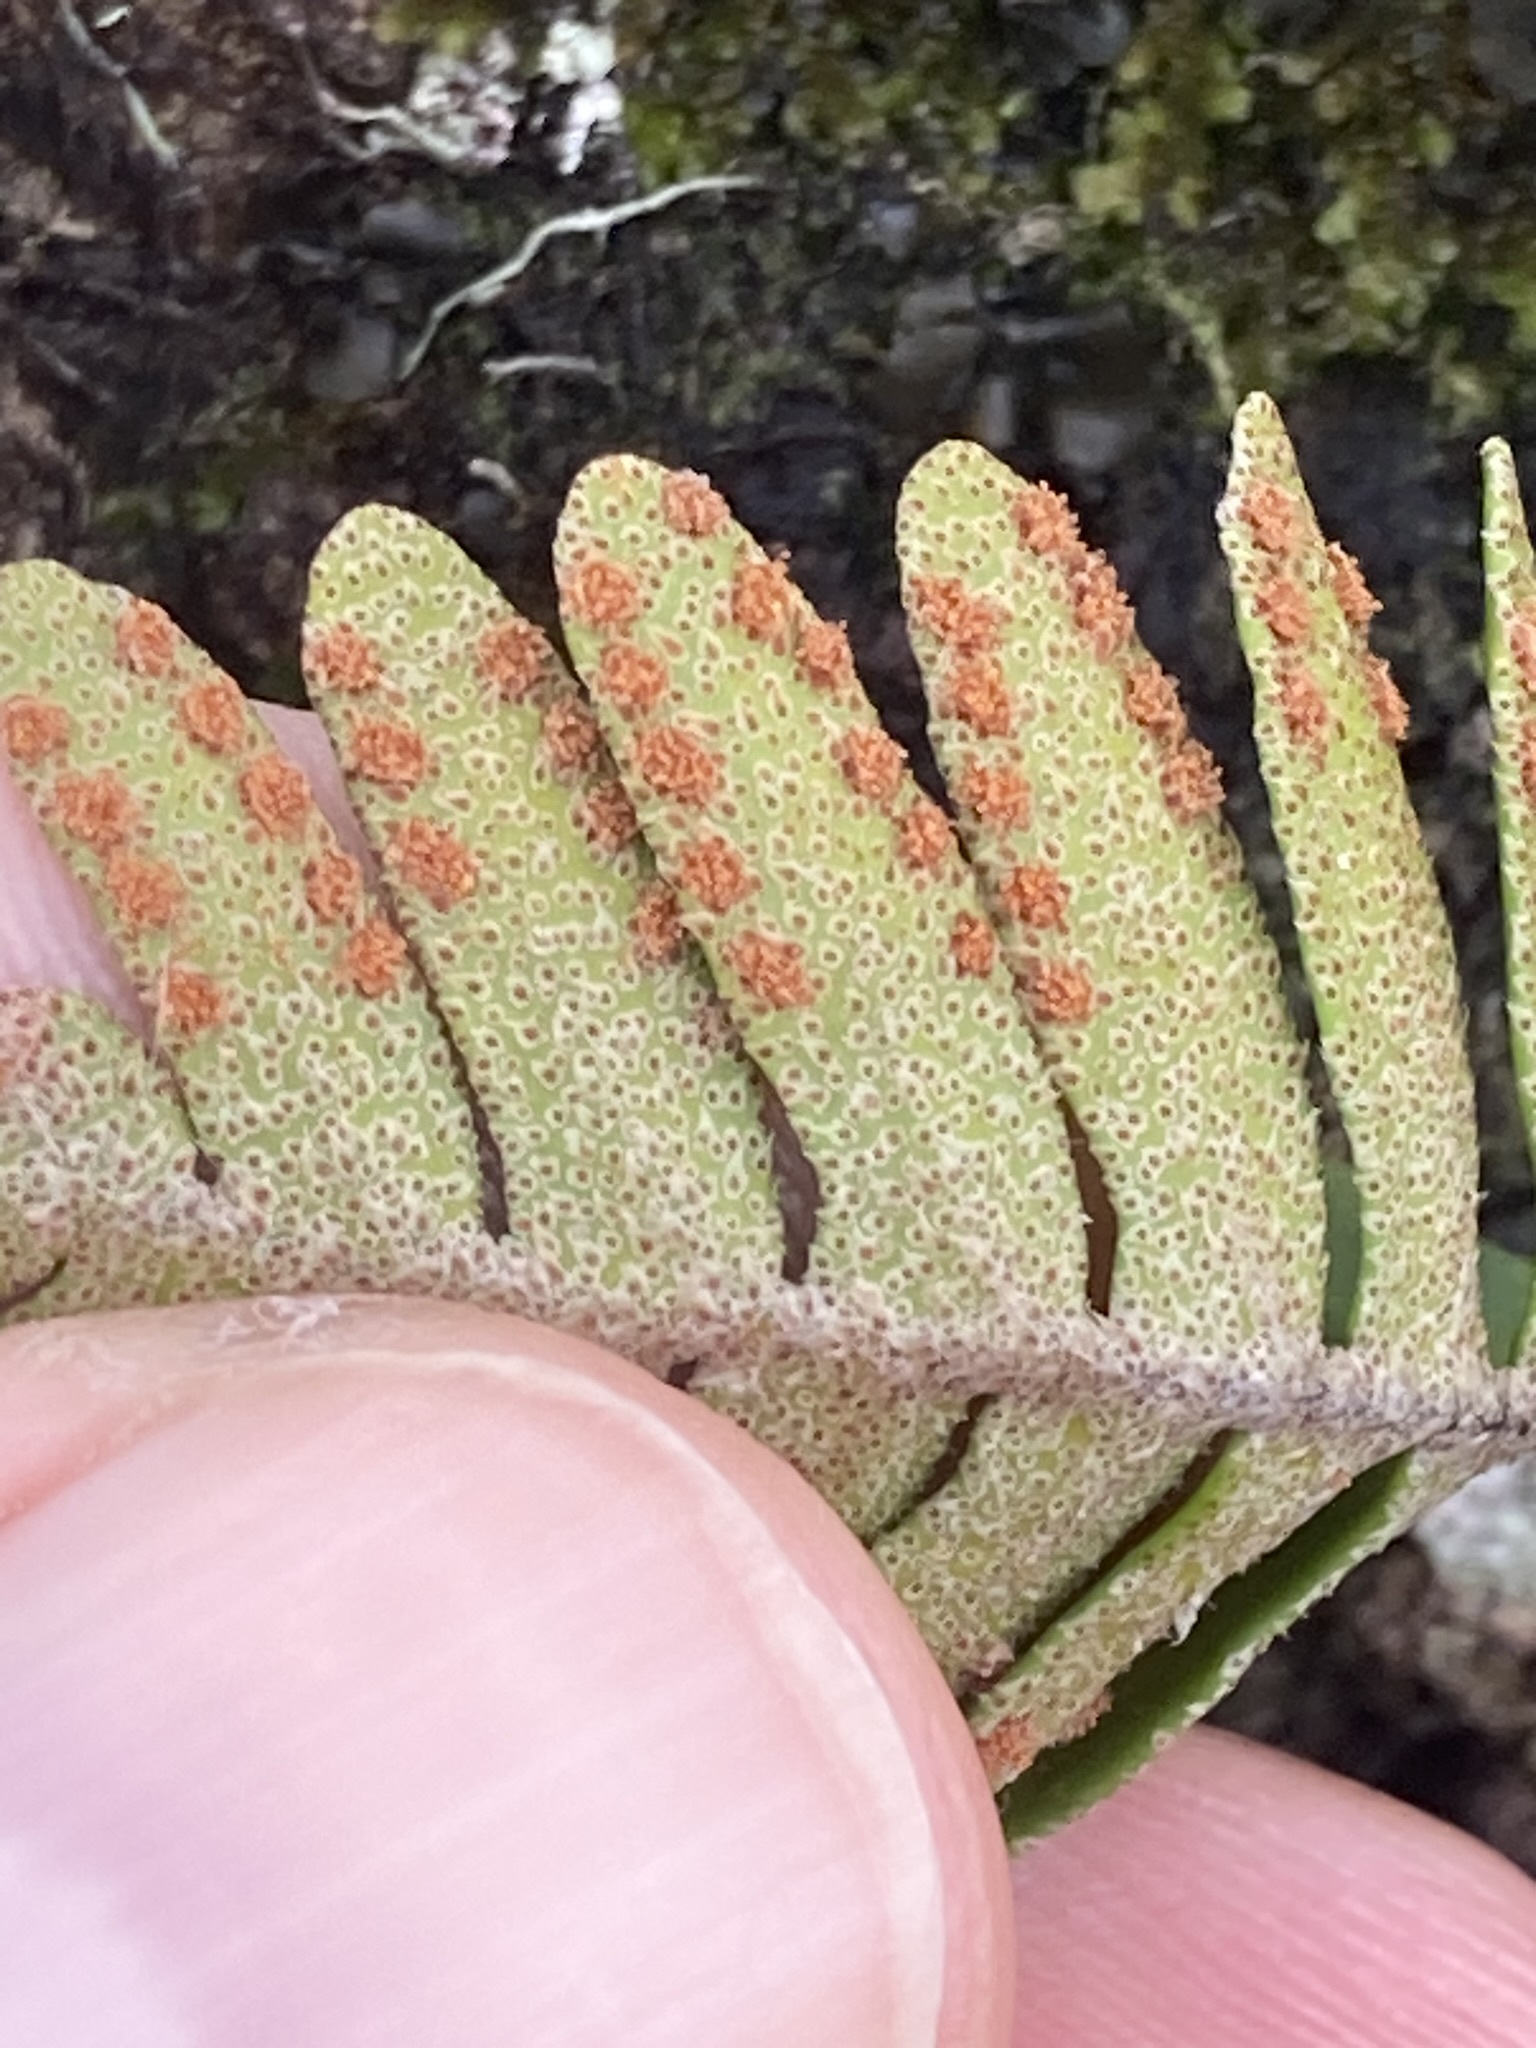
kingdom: Plantae
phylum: Tracheophyta
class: Polypodiopsida
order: Polypodiales
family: Polypodiaceae
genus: Pleopeltis
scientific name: Pleopeltis michauxiana
